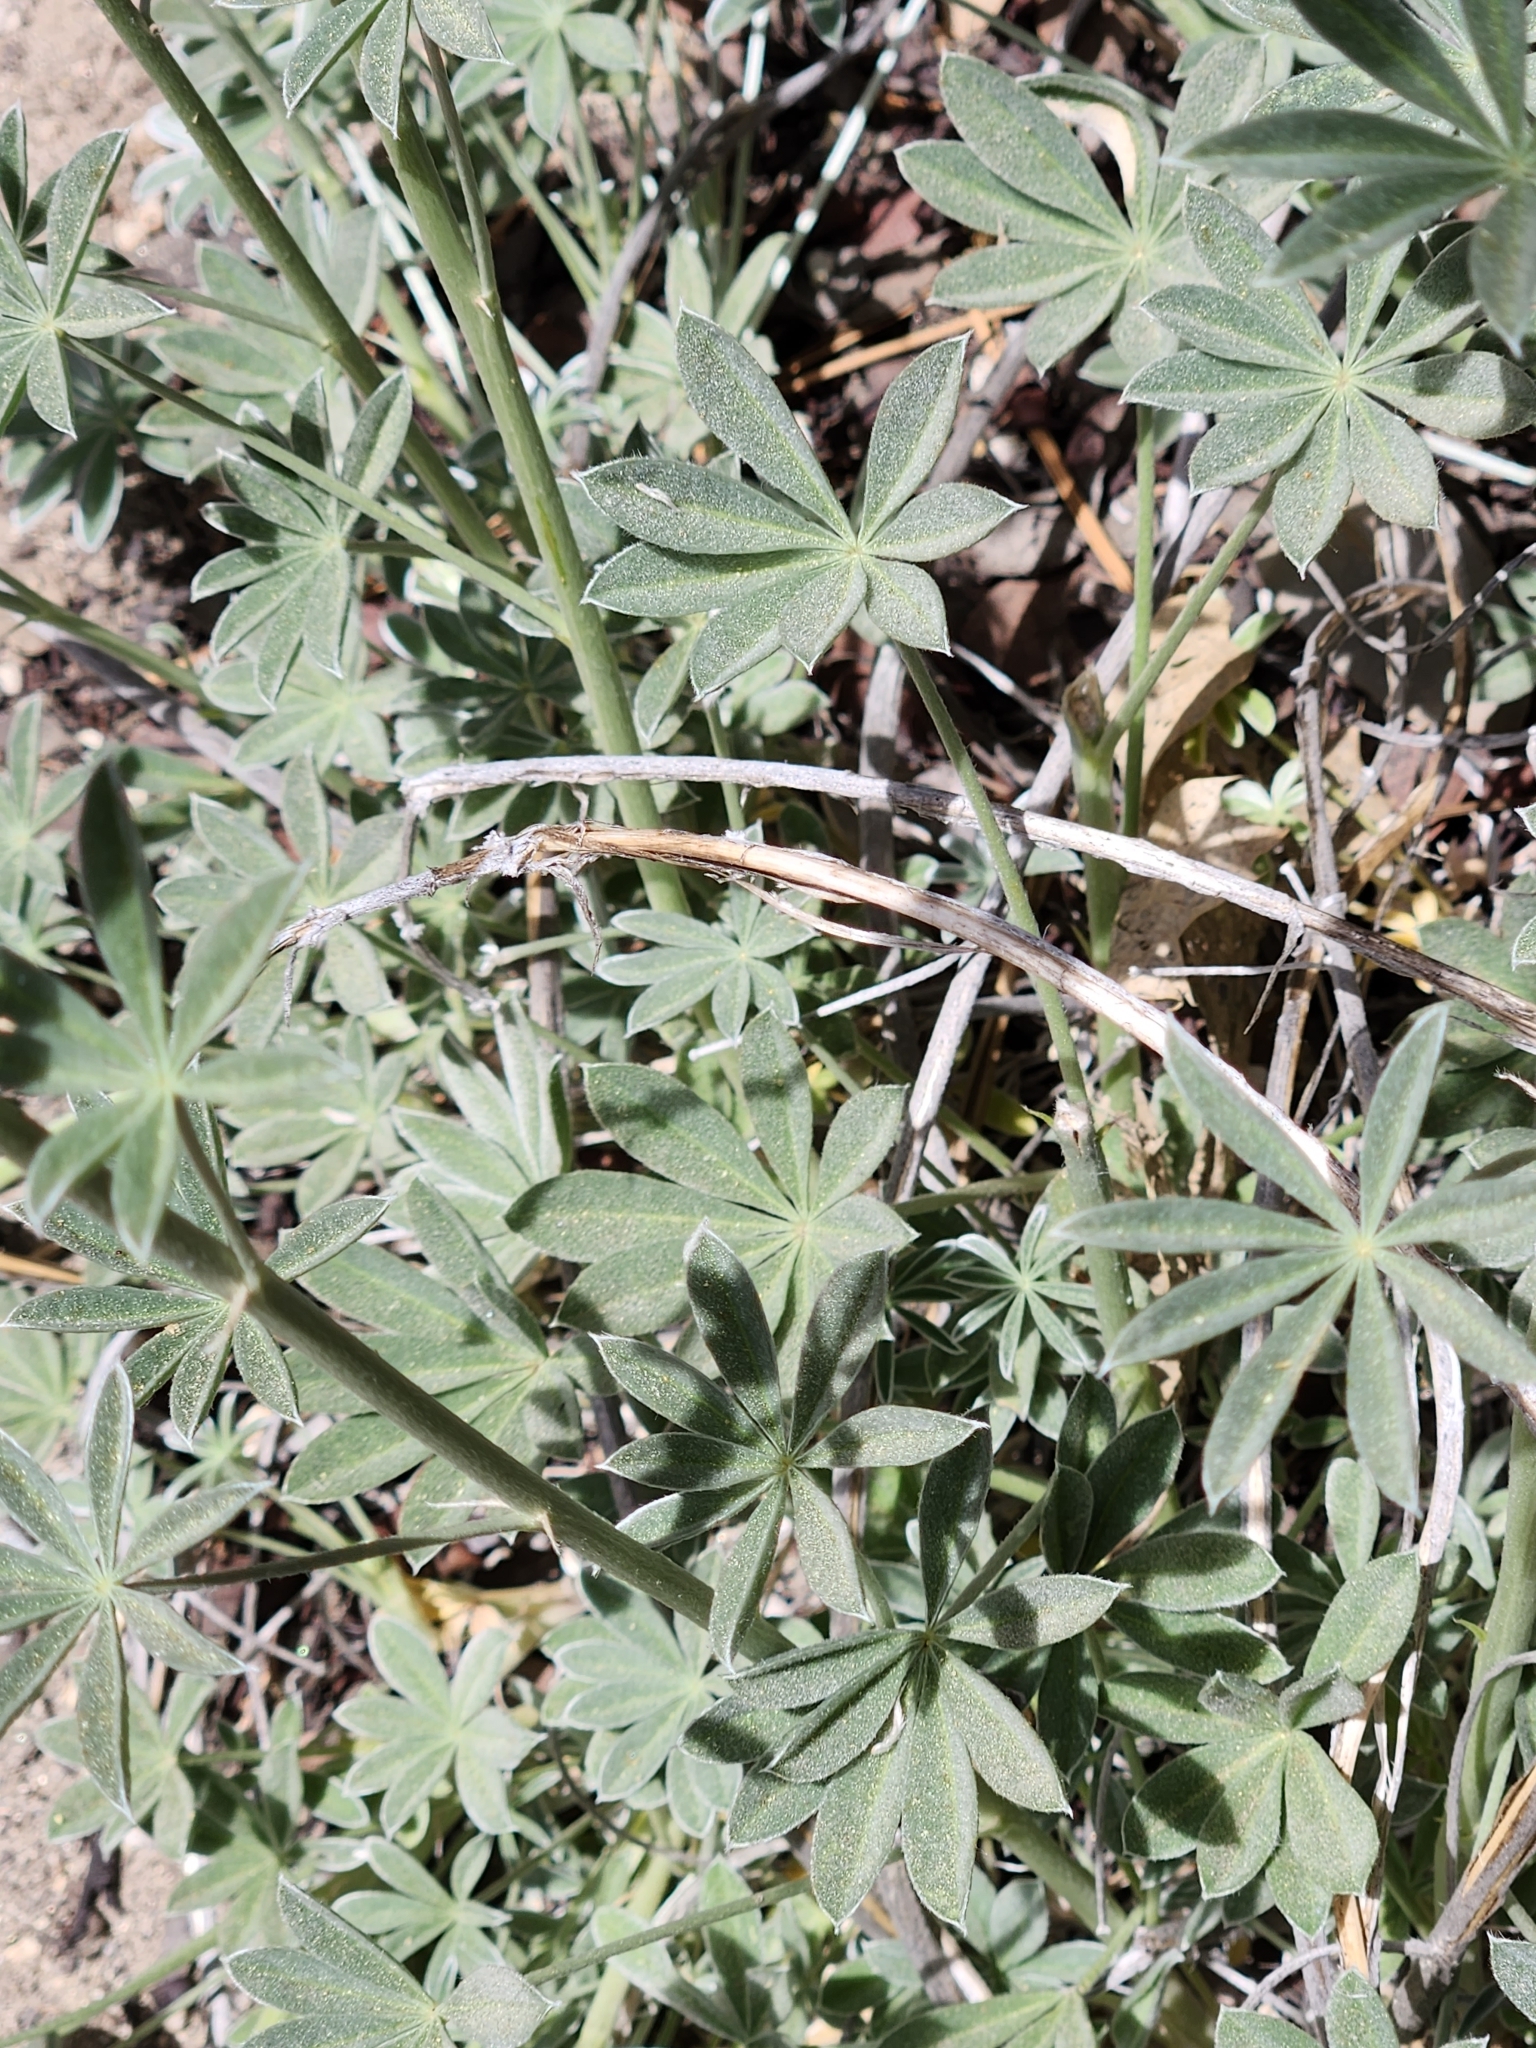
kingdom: Plantae
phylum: Tracheophyta
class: Magnoliopsida
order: Fabales
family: Fabaceae
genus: Lupinus
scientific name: Lupinus excubitus
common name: Grape soda lupine
